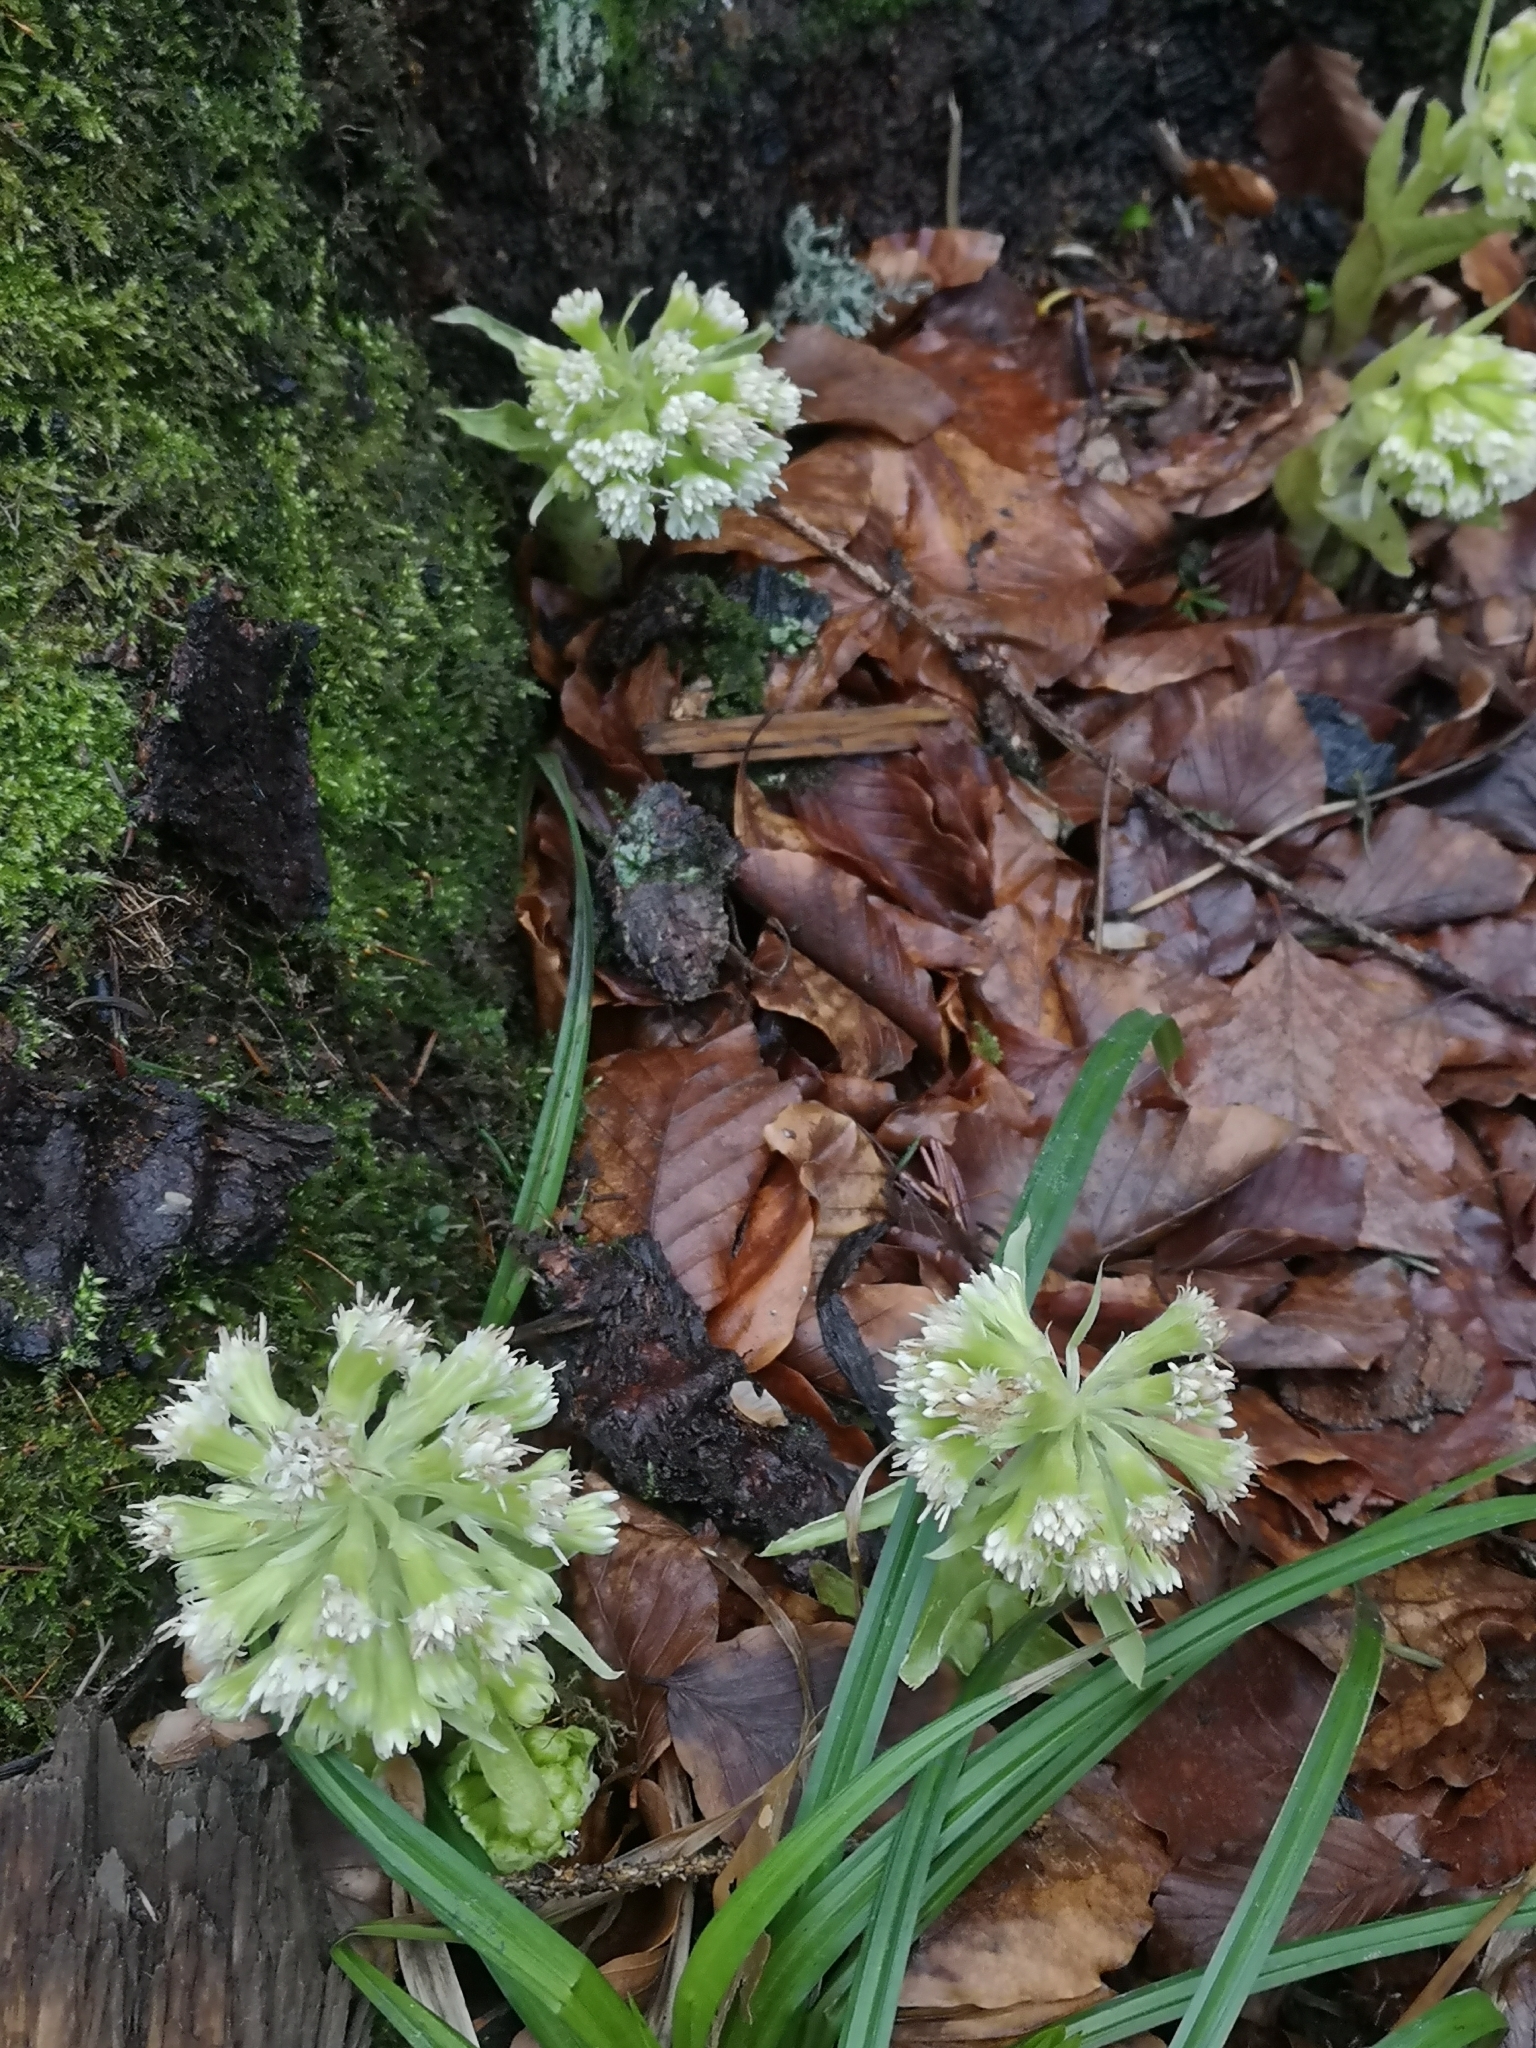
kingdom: Plantae
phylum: Tracheophyta
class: Magnoliopsida
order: Asterales
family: Asteraceae
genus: Petasites
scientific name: Petasites albus
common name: White butterbur
